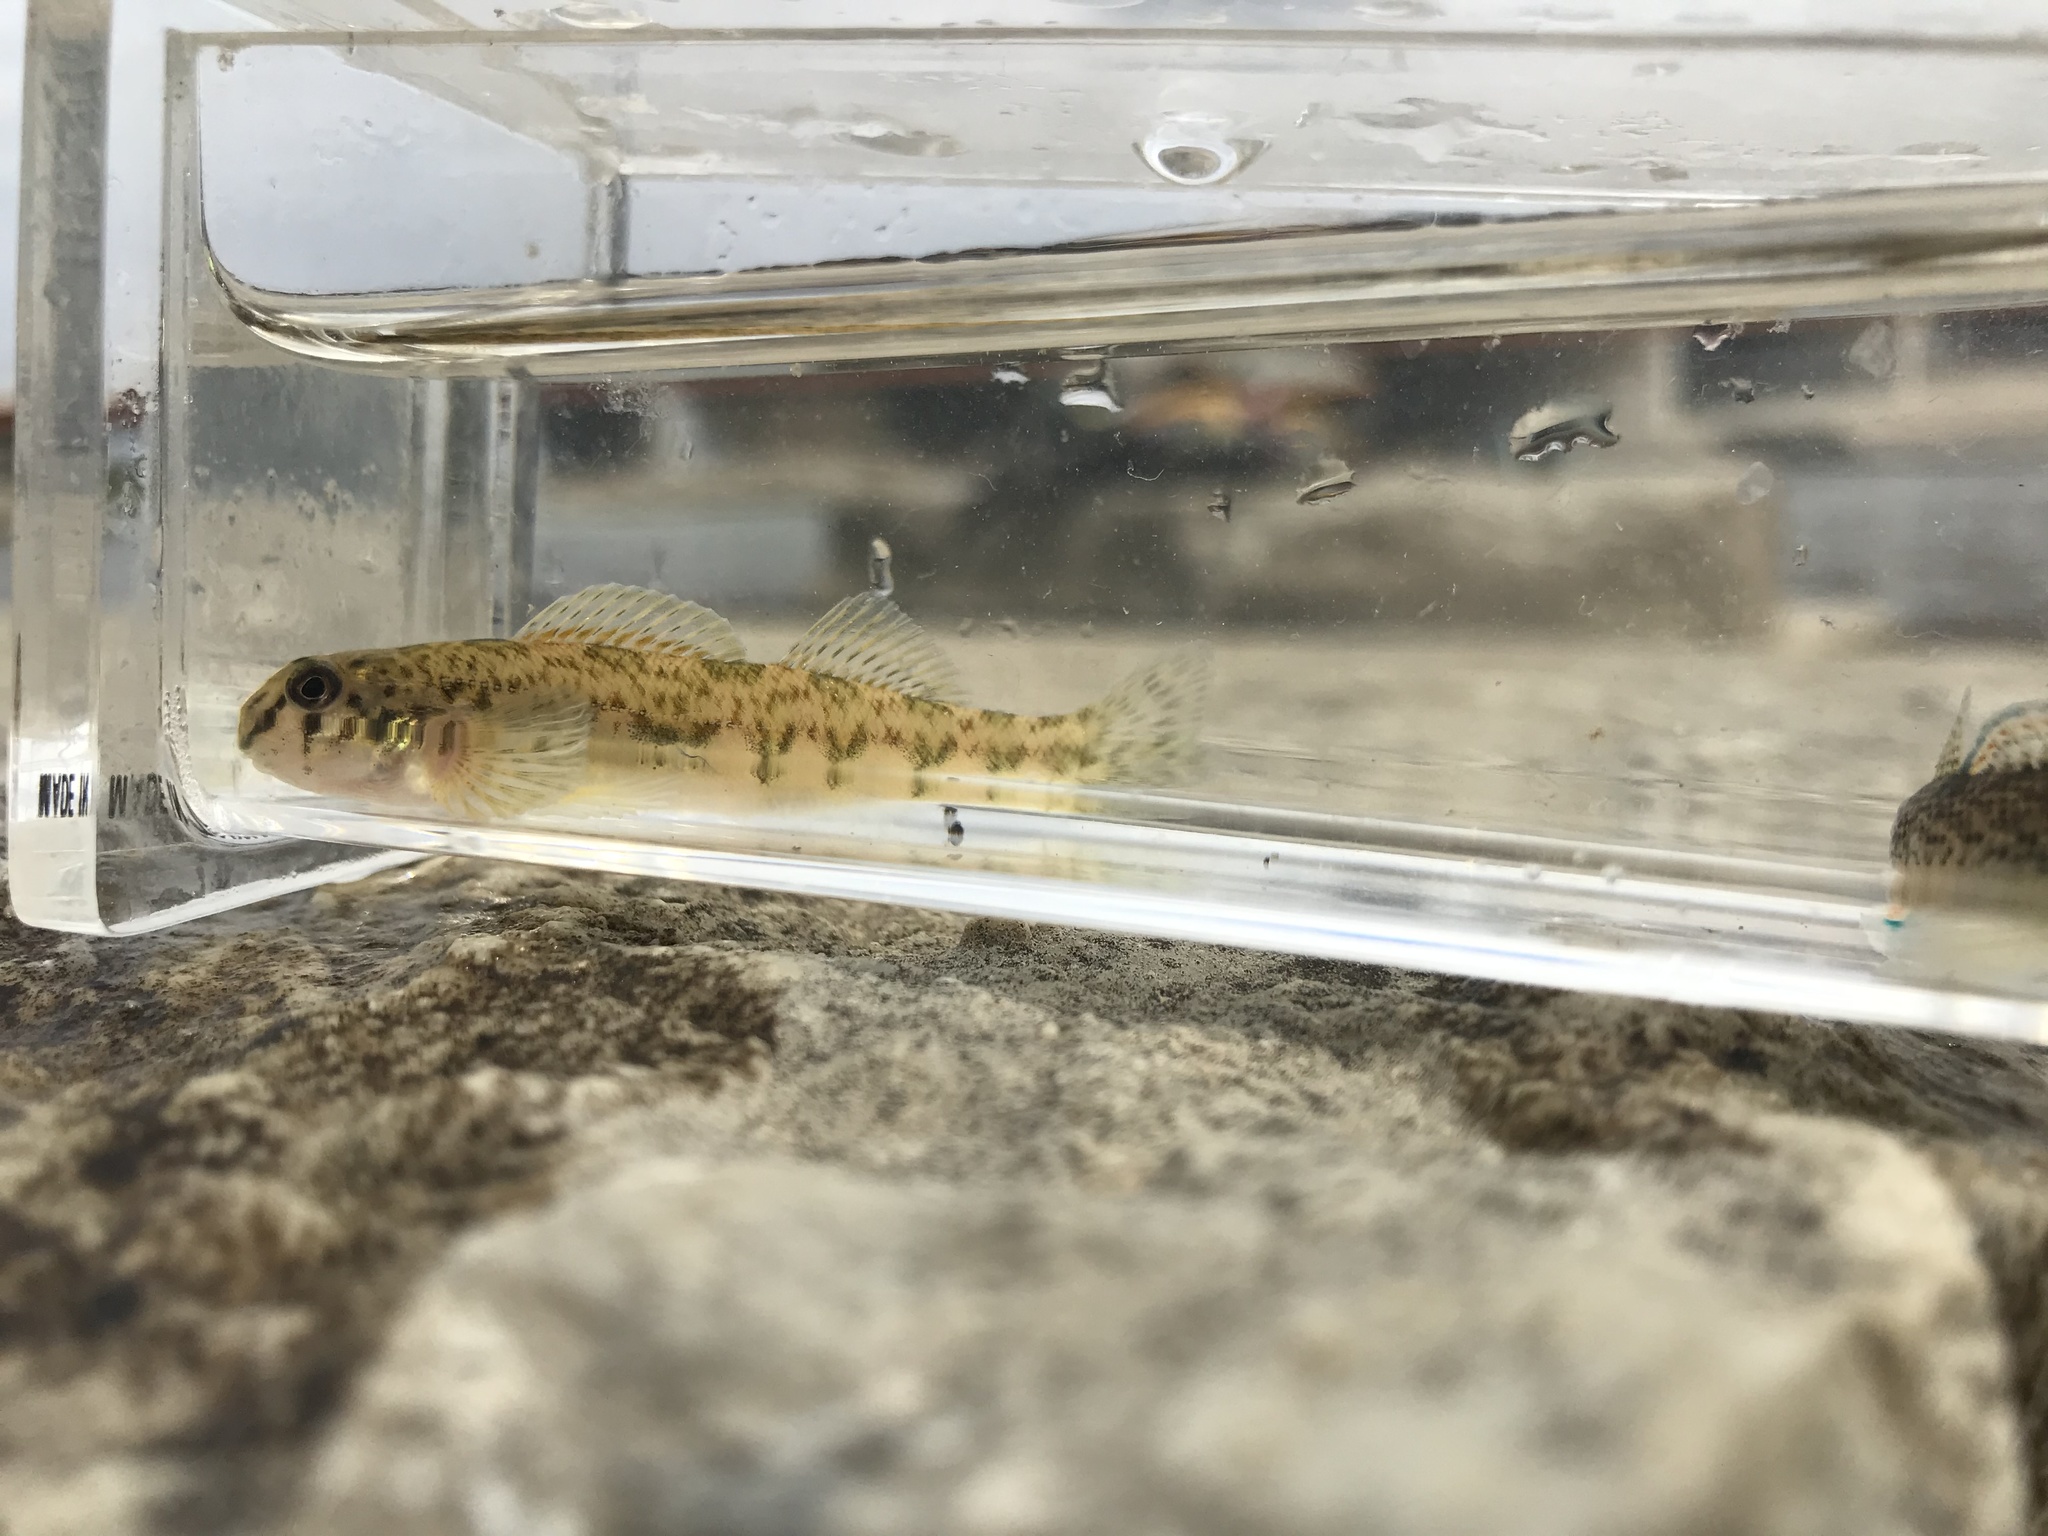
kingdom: Animalia
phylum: Chordata
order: Perciformes
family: Percidae
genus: Etheostoma
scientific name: Etheostoma blennioides
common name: Greenside darter
